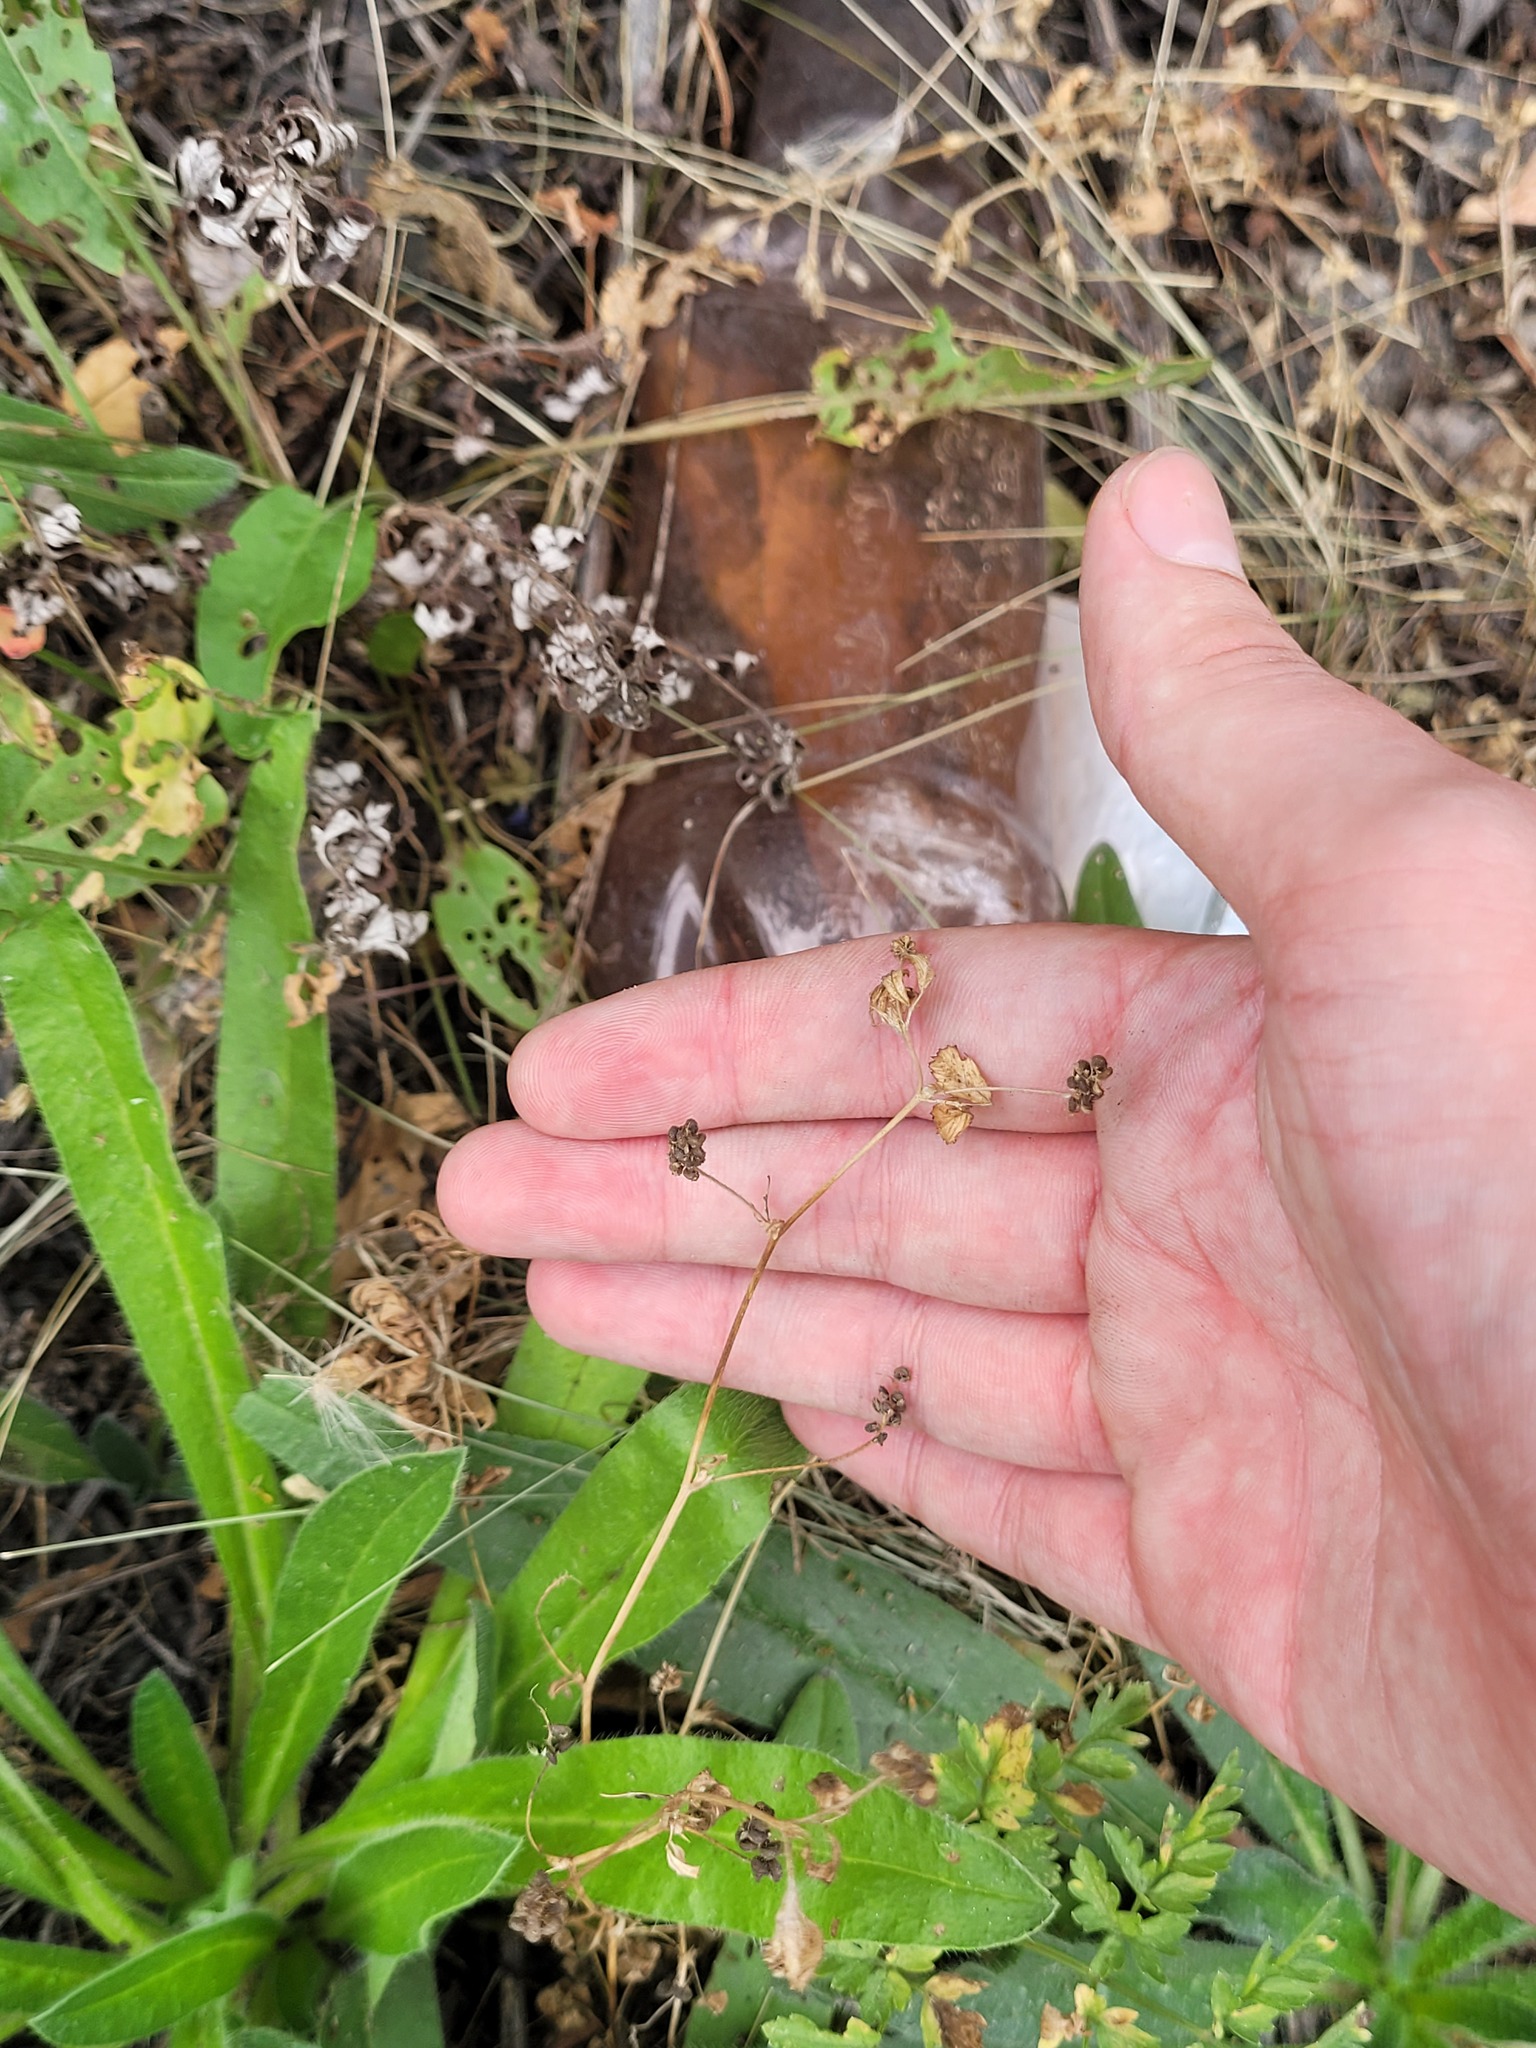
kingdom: Plantae
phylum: Tracheophyta
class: Magnoliopsida
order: Fabales
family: Fabaceae
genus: Medicago
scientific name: Medicago lupulina
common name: Black medick
